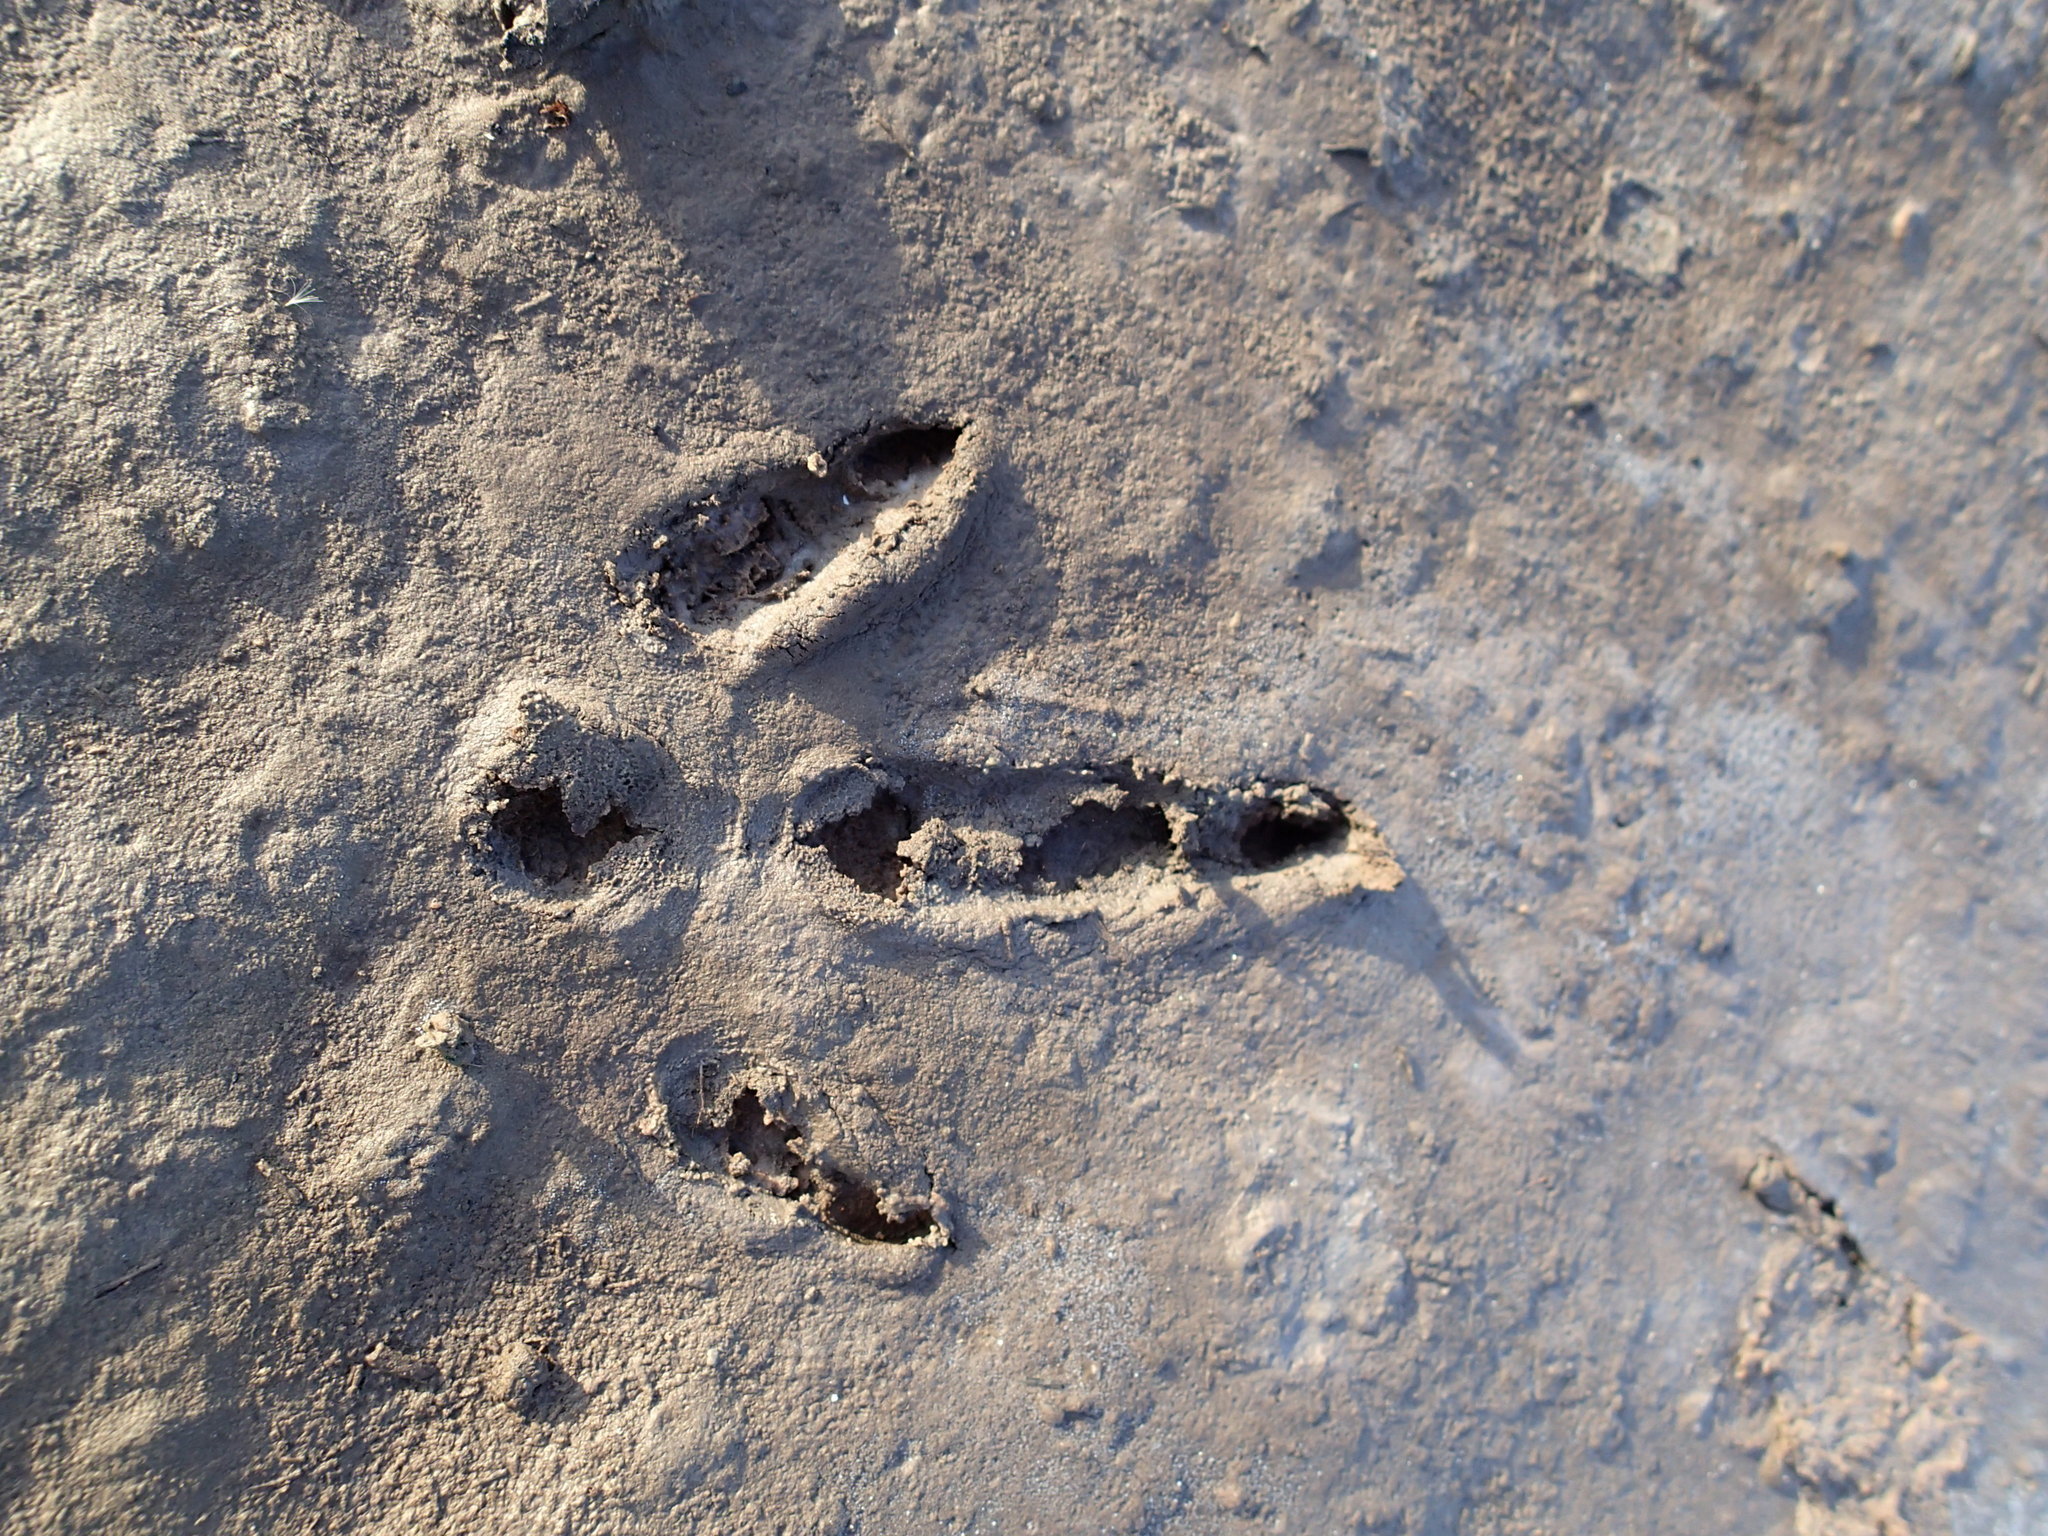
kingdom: Animalia
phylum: Chordata
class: Aves
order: Rheiformes
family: Rheidae
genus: Rhea
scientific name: Rhea americana
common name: Greater rhea
